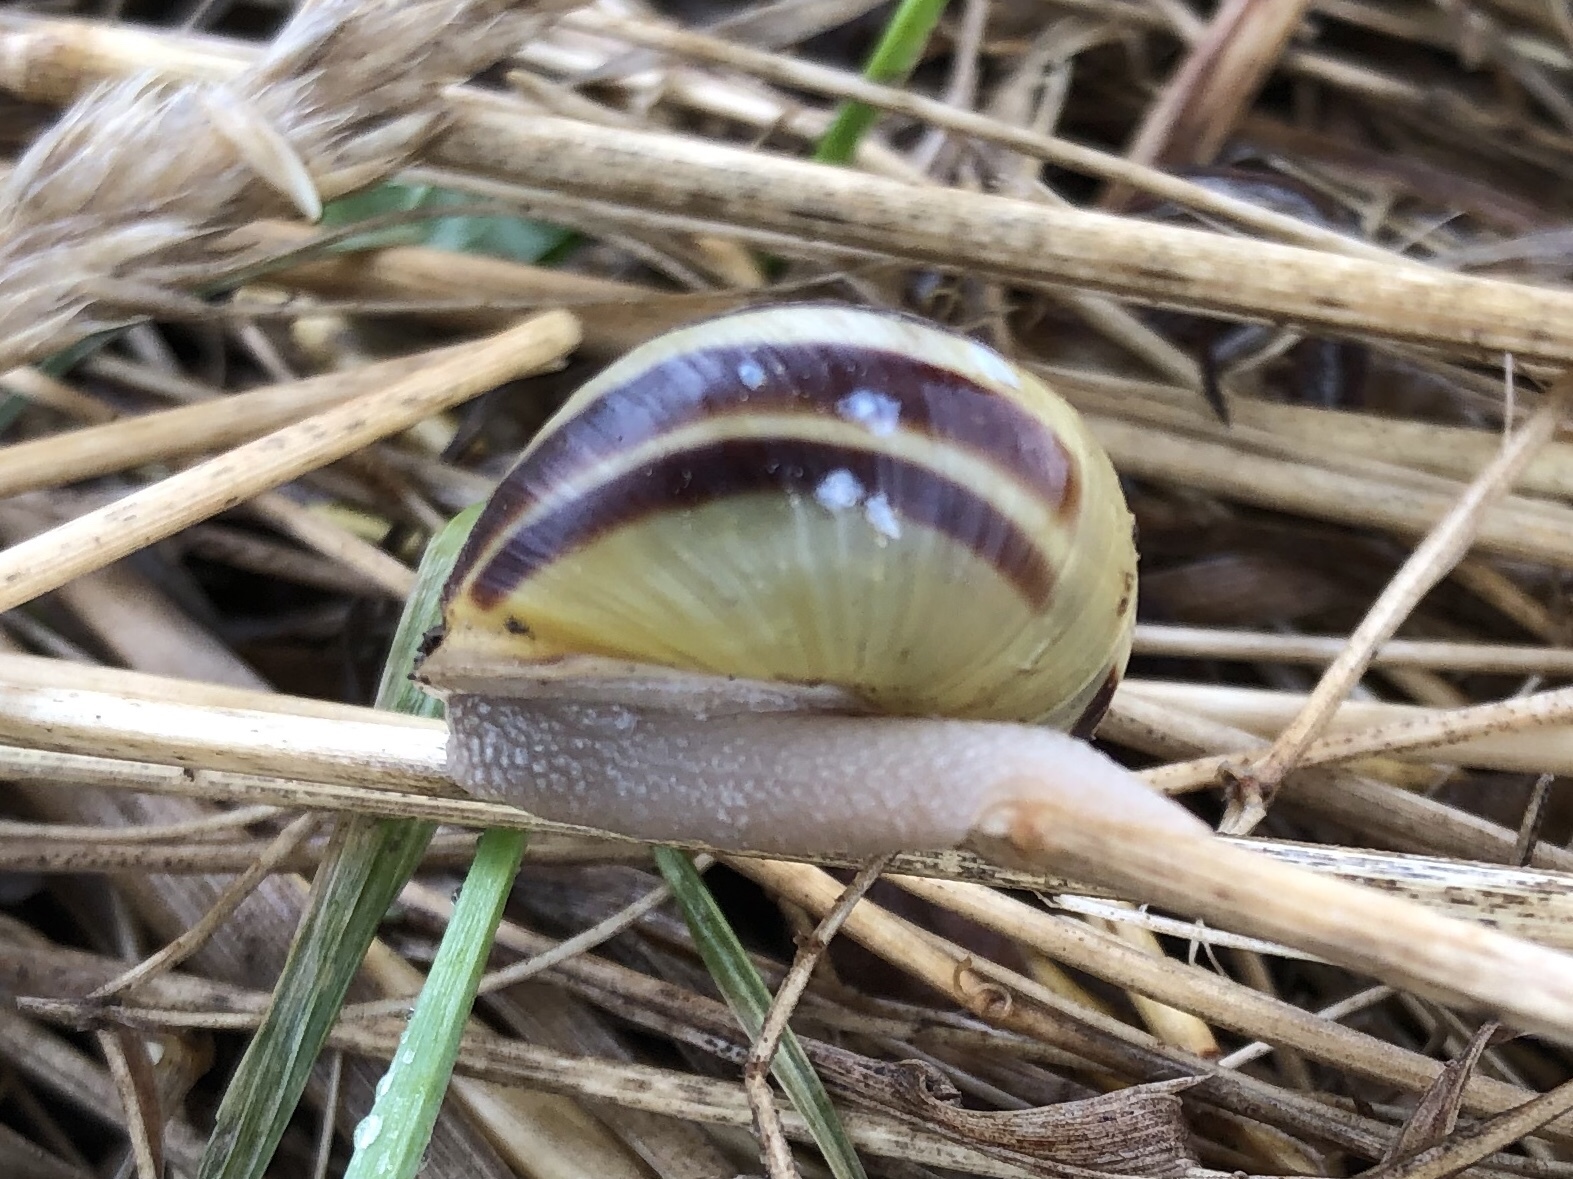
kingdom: Animalia
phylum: Mollusca
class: Gastropoda
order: Stylommatophora
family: Helicidae
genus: Cepaea
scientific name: Cepaea hortensis
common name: White-lip gardensnail
